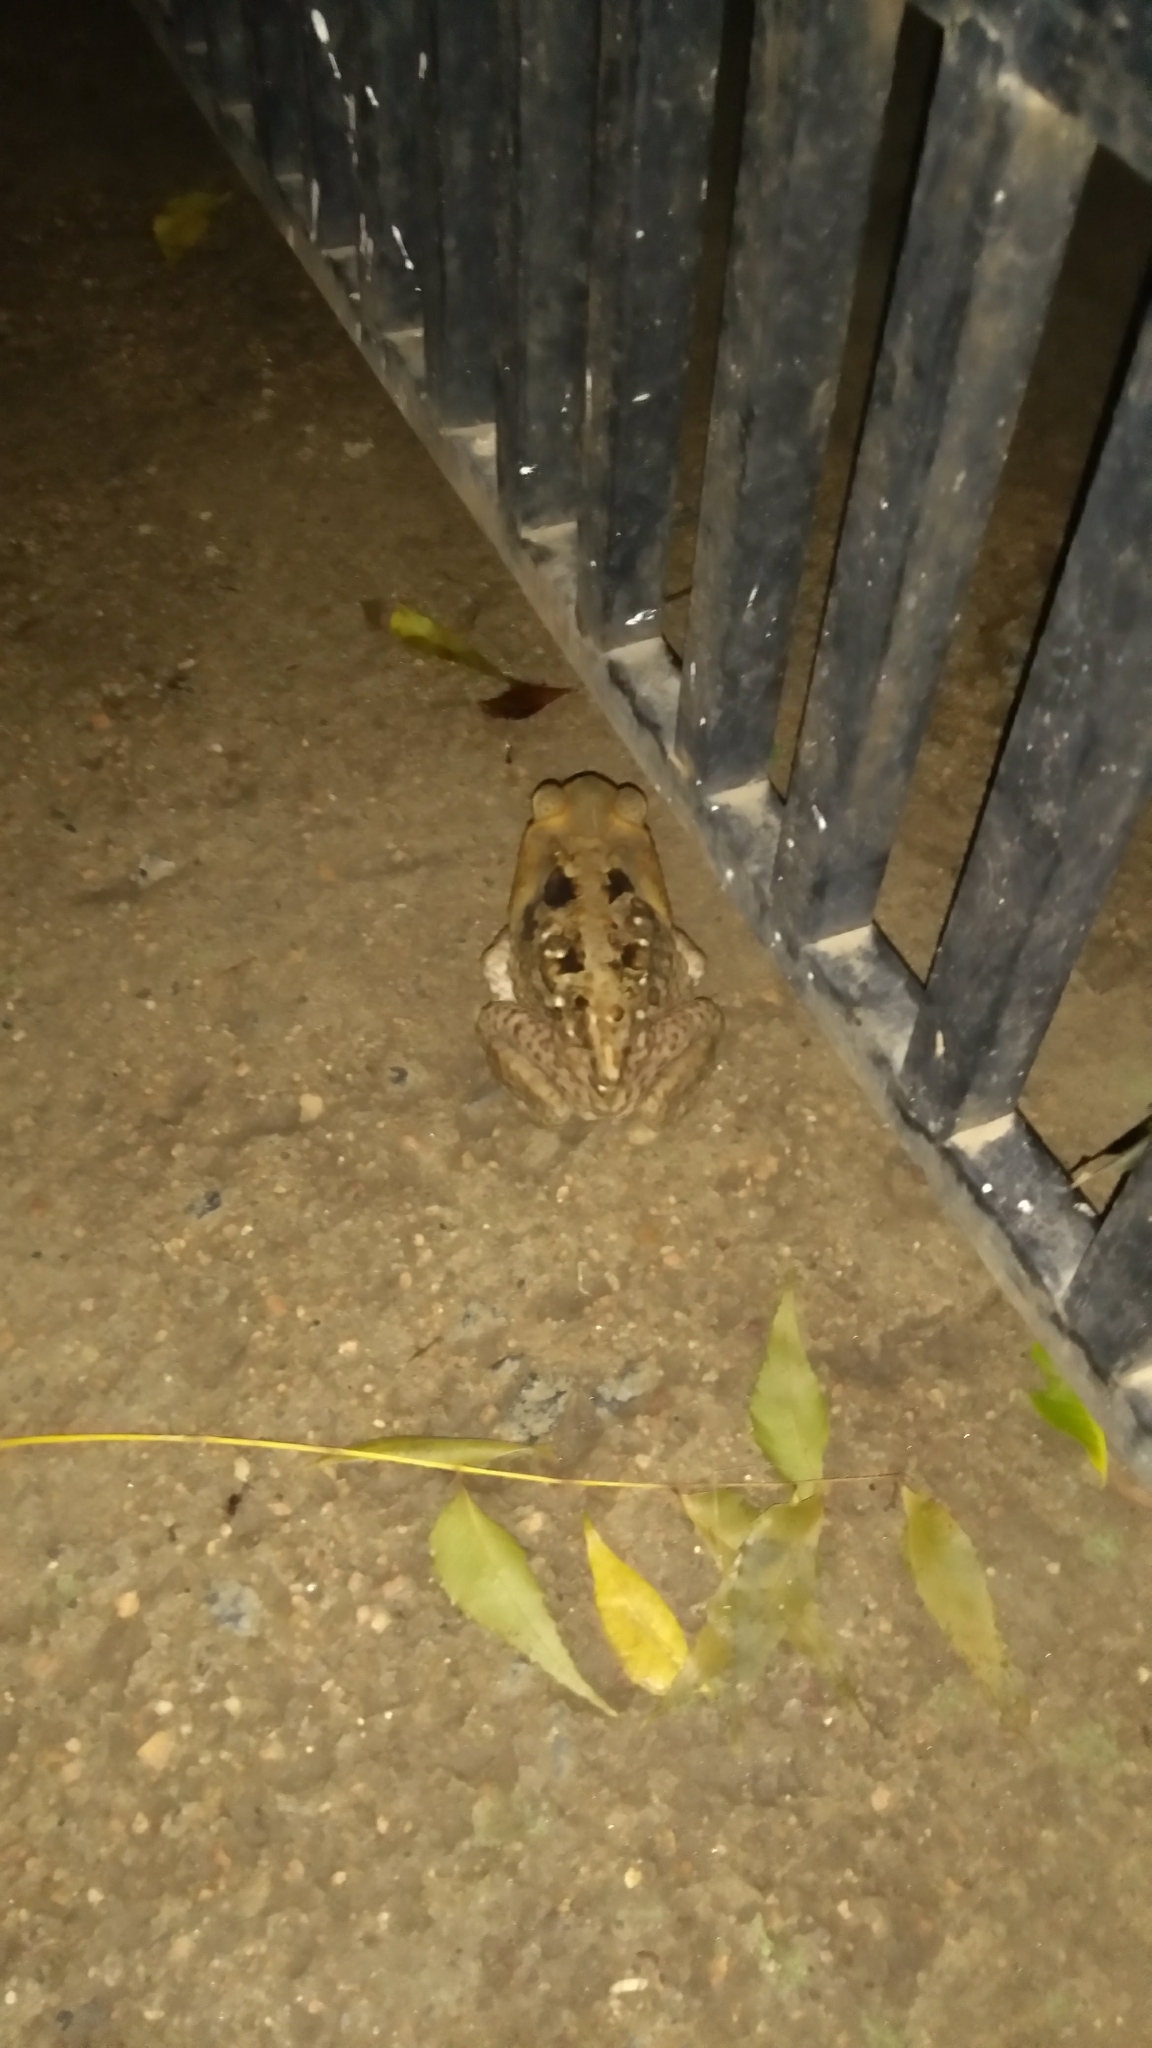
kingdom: Animalia
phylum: Chordata
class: Amphibia
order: Anura
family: Bufonidae
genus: Rhinella
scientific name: Rhinella diptycha
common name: Cope's toad
